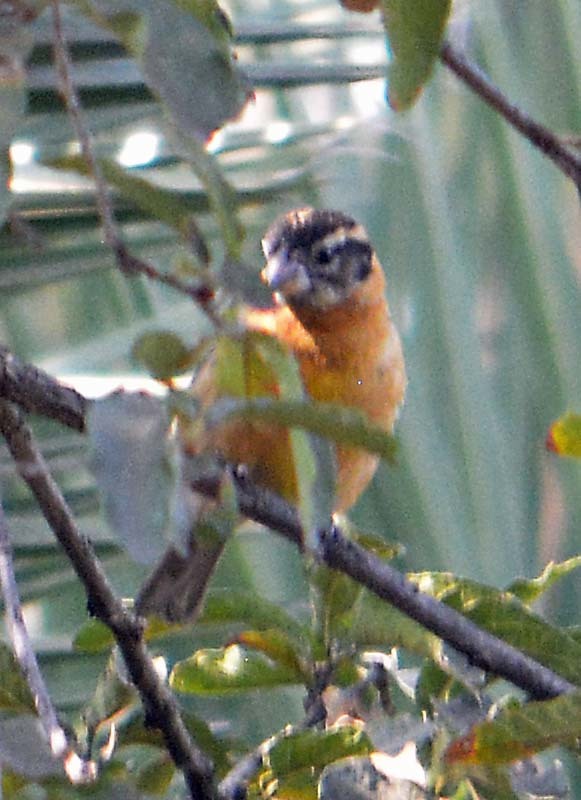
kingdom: Animalia
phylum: Chordata
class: Aves
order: Passeriformes
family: Cardinalidae
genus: Pheucticus
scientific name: Pheucticus melanocephalus
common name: Black-headed grosbeak
